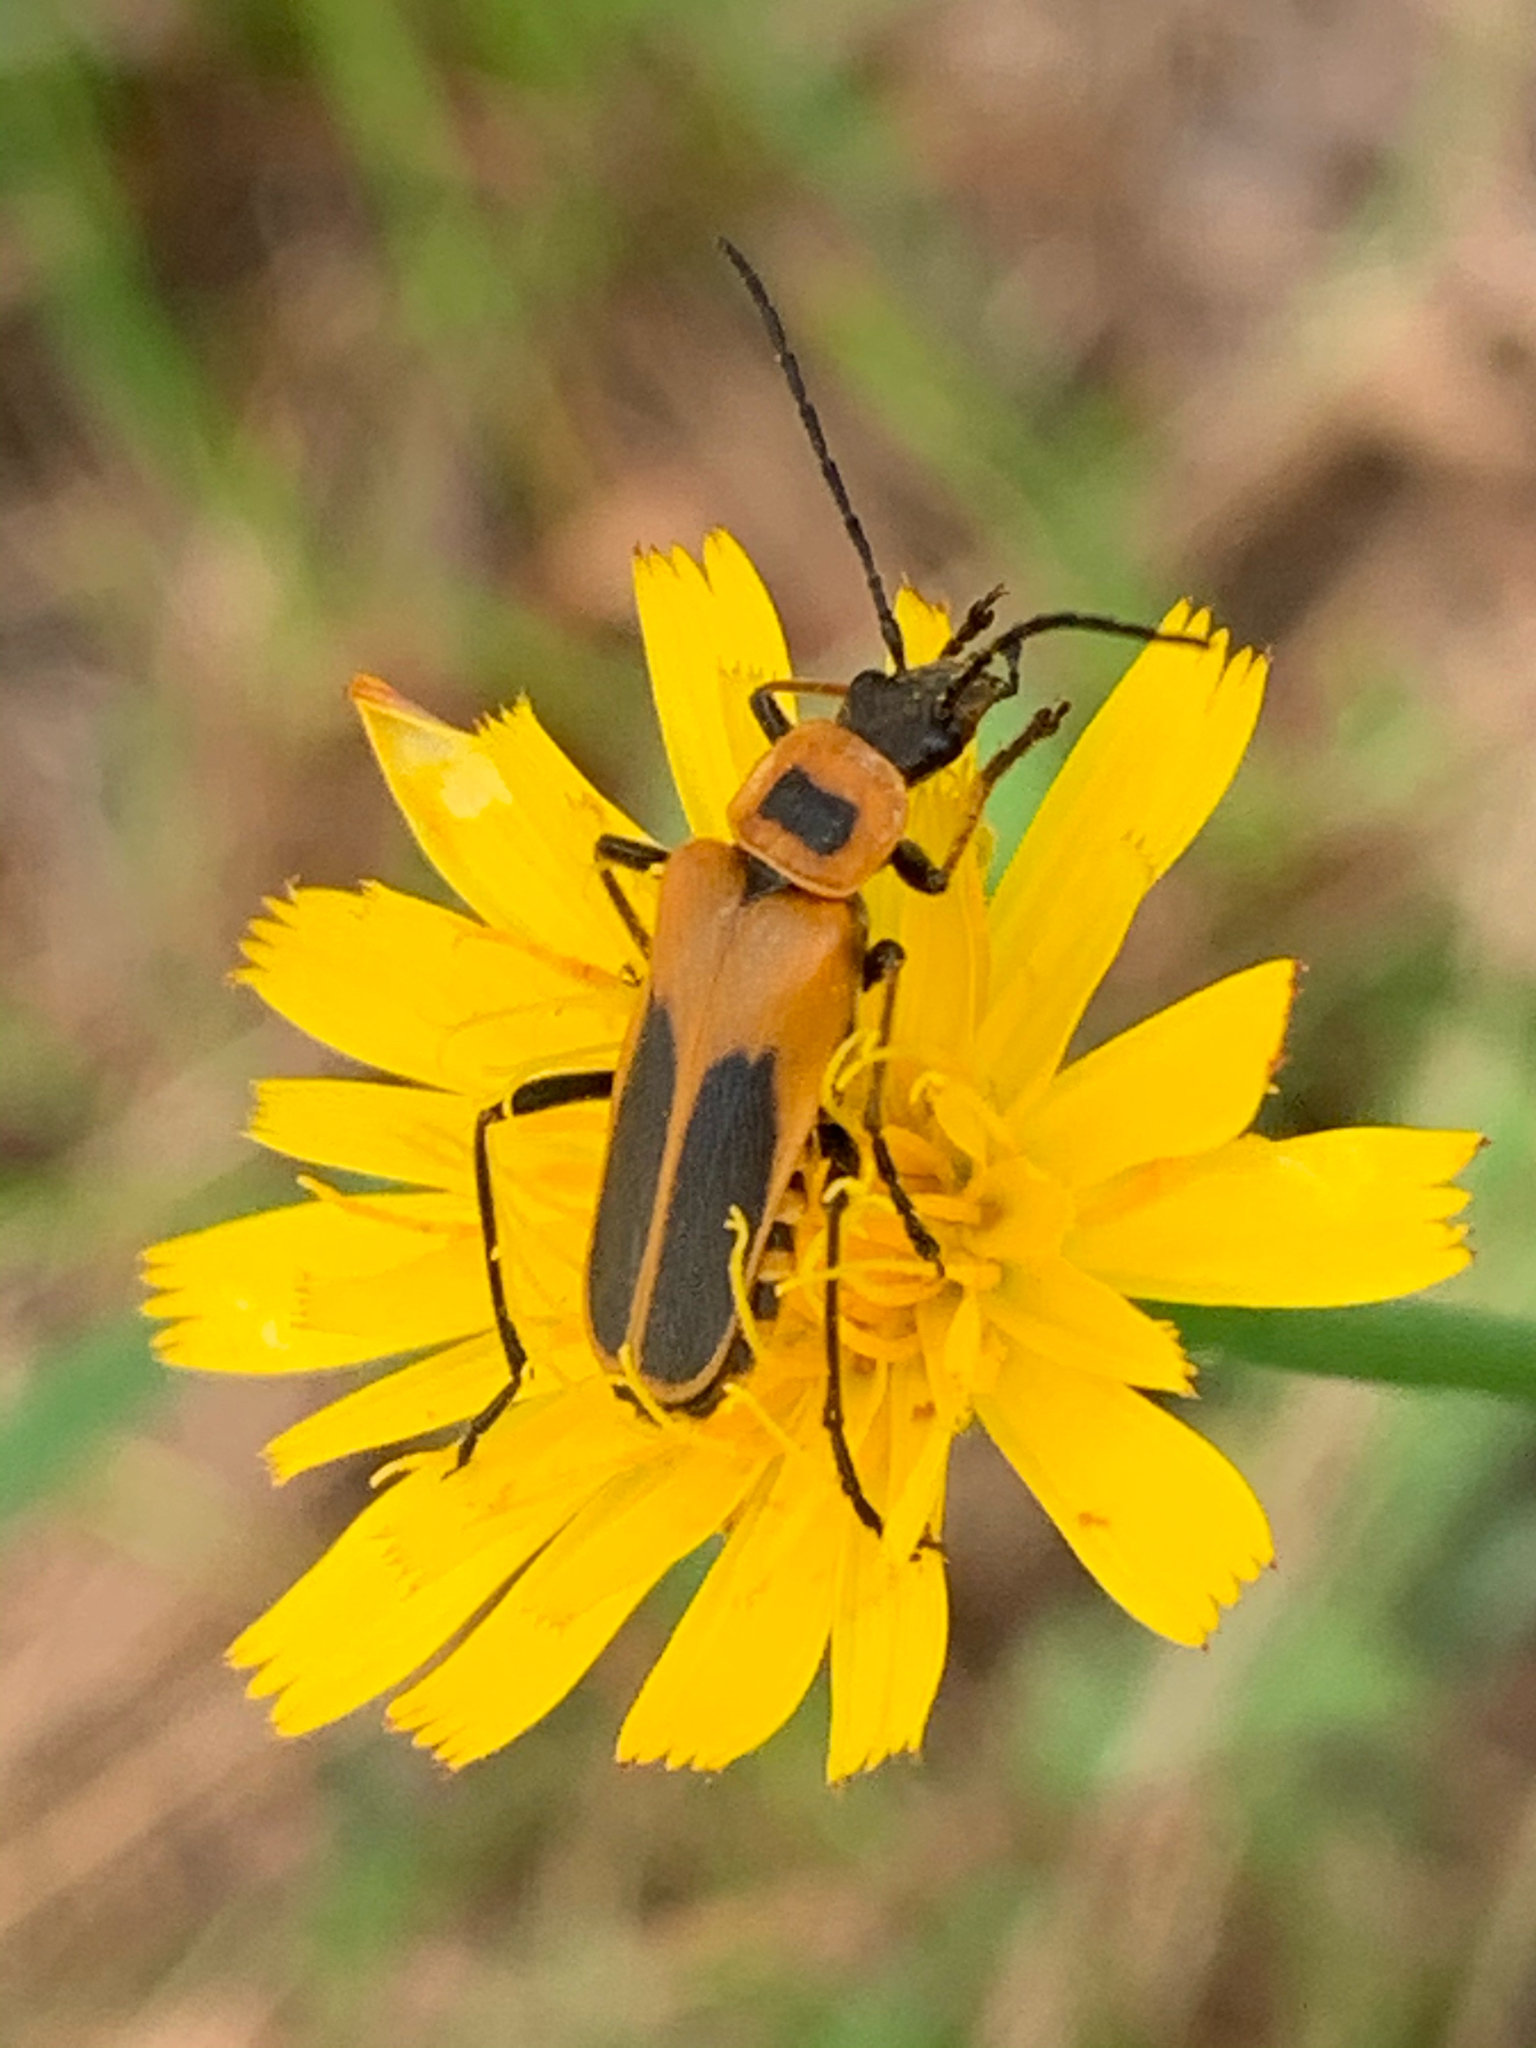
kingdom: Animalia
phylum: Arthropoda
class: Insecta
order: Coleoptera
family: Cantharidae
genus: Chauliognathus
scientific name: Chauliognathus pensylvanicus
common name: Goldenrod soldier beetle
